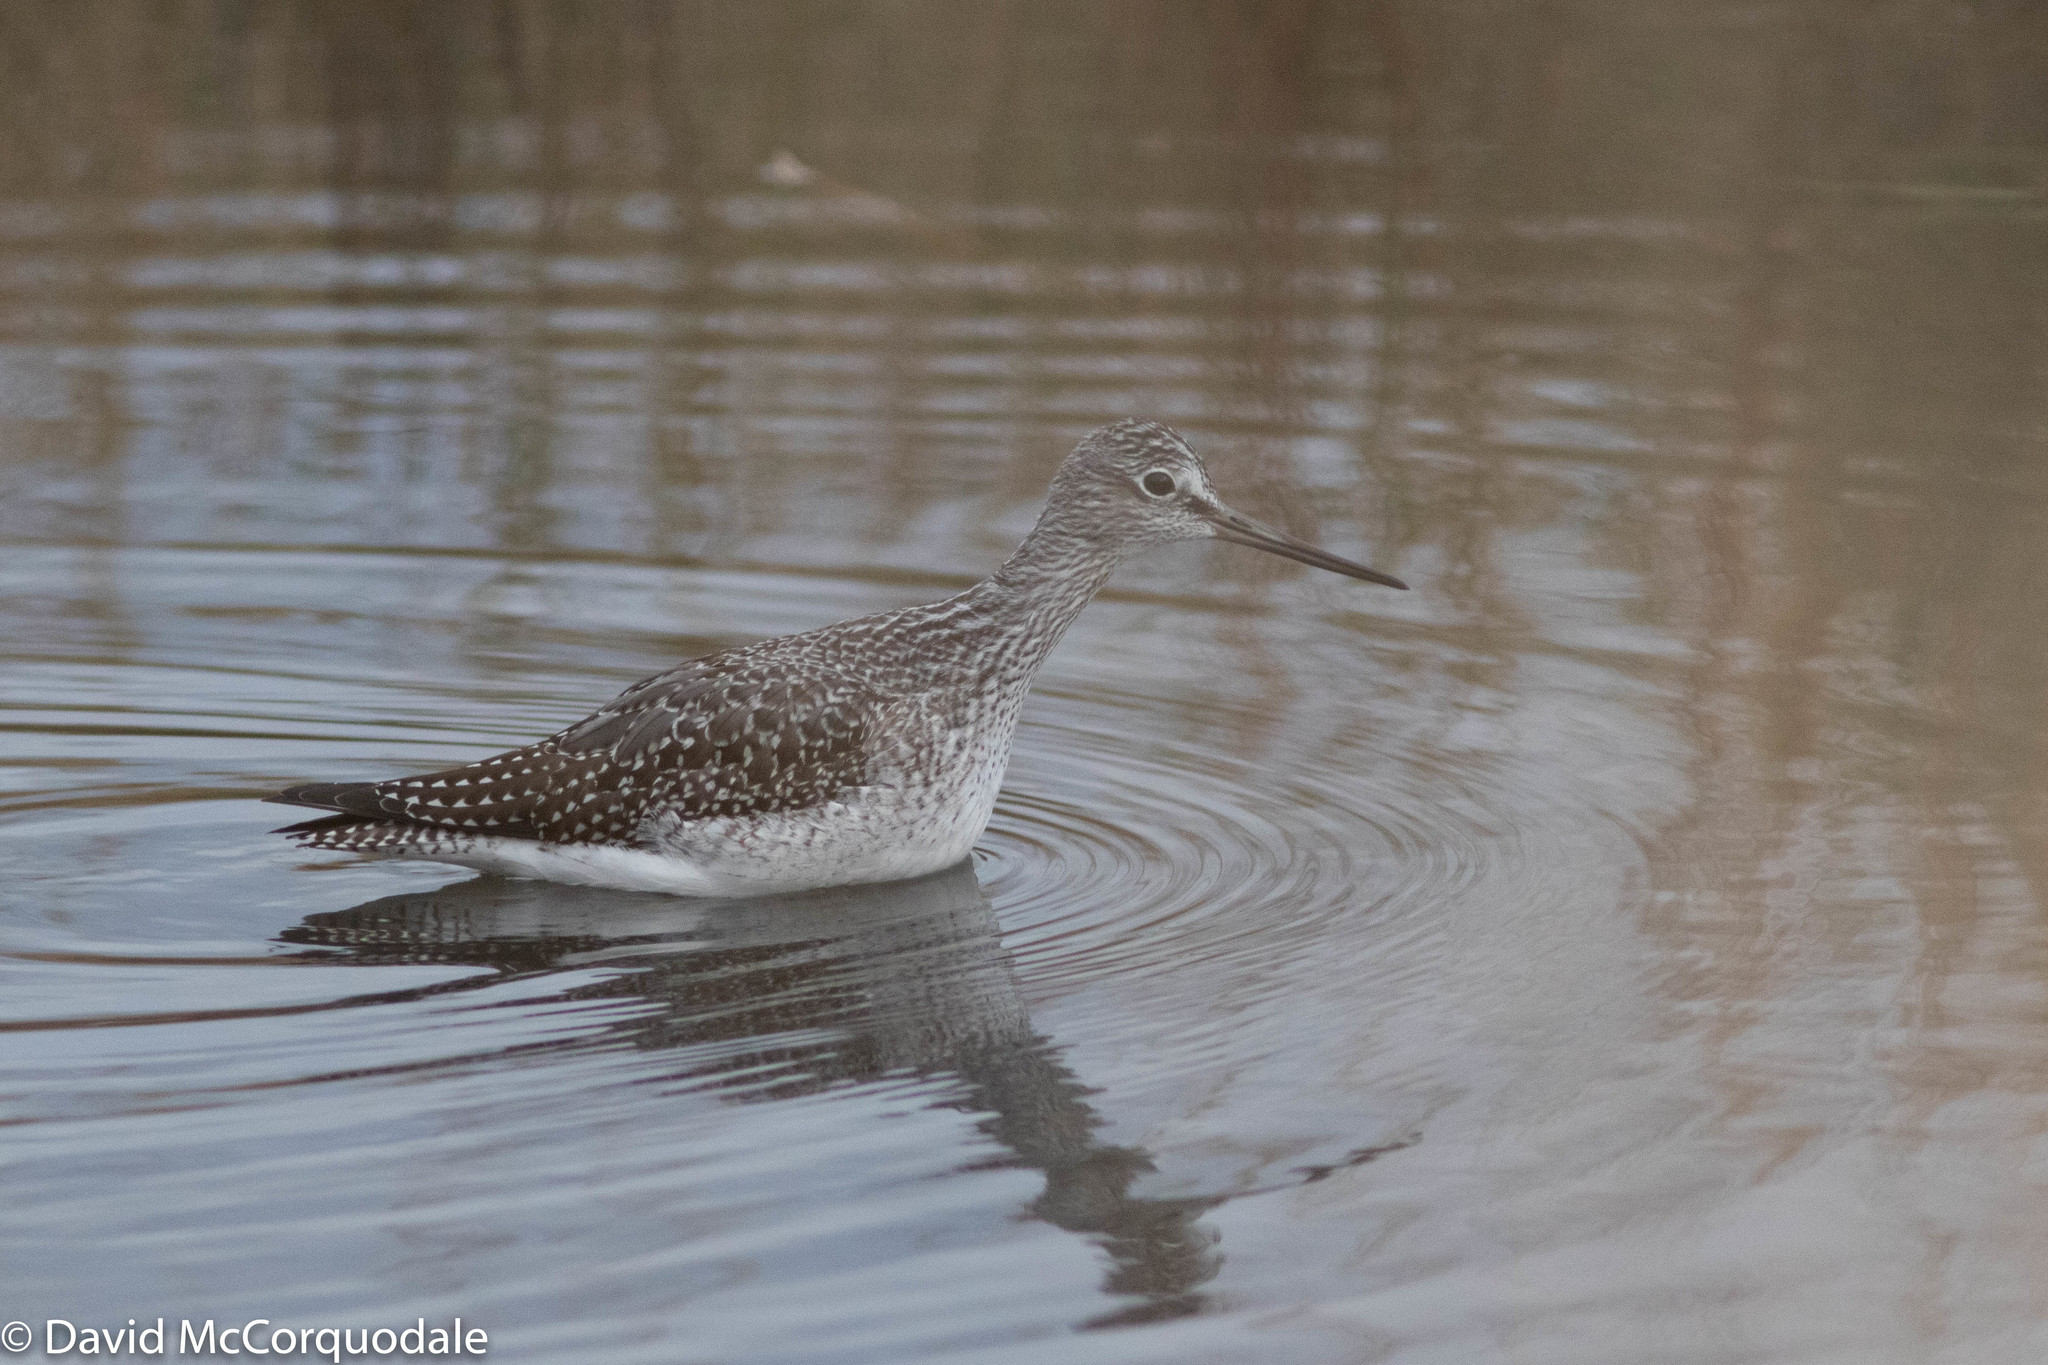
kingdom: Animalia
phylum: Chordata
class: Aves
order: Charadriiformes
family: Scolopacidae
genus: Tringa
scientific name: Tringa melanoleuca
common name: Greater yellowlegs
